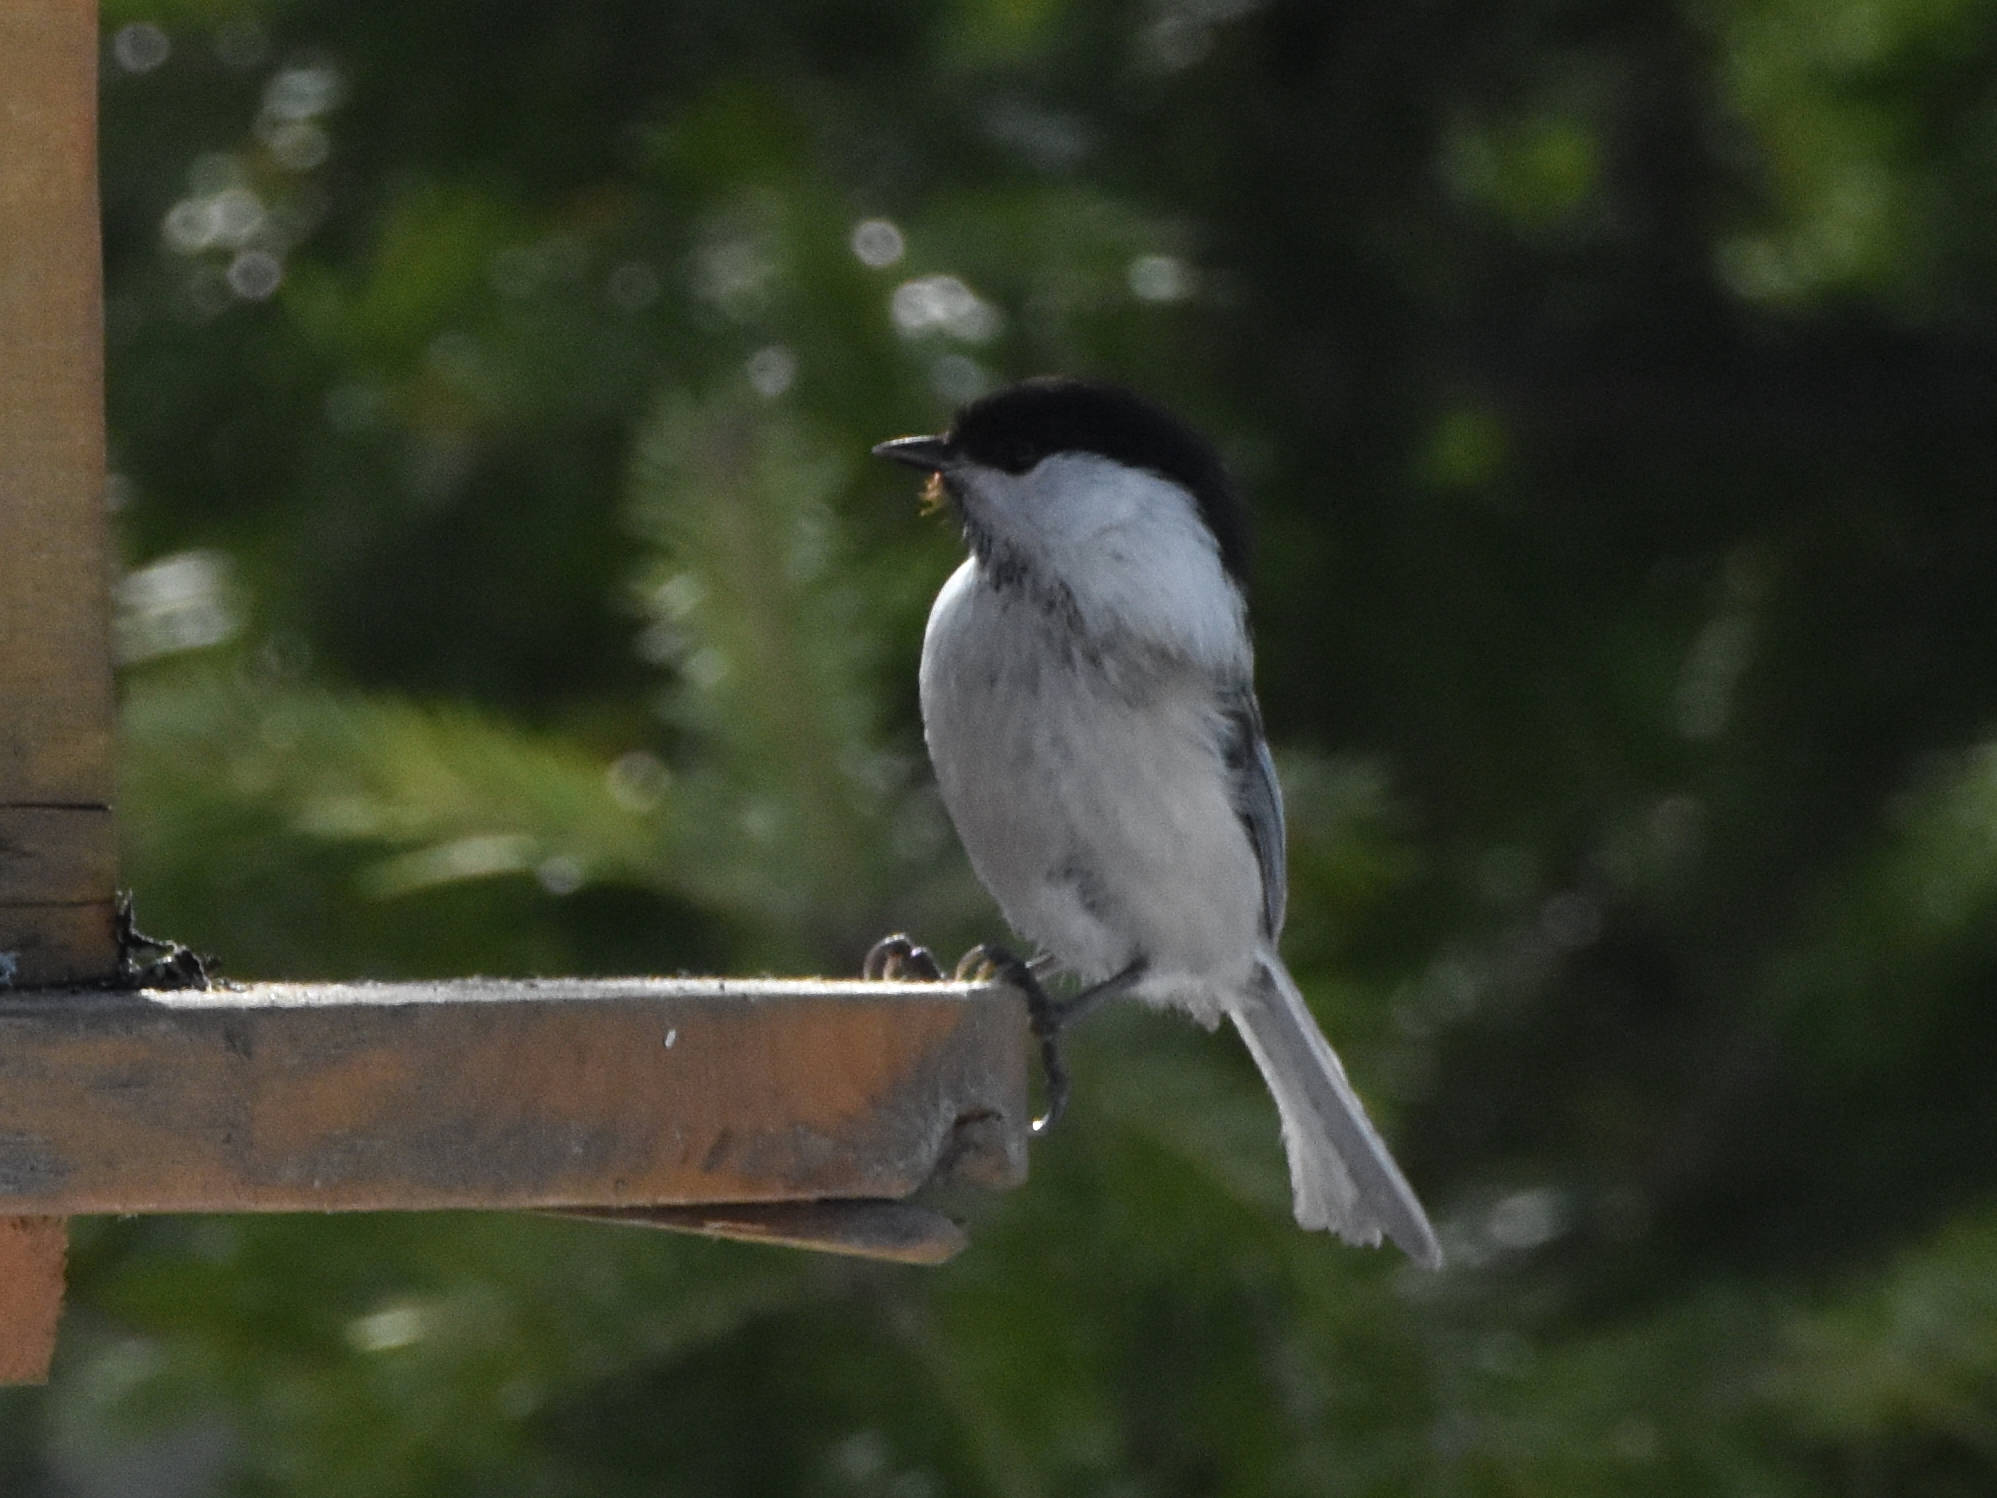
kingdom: Animalia
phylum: Chordata
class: Aves
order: Passeriformes
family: Paridae
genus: Poecile
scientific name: Poecile montanus
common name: Willow tit
